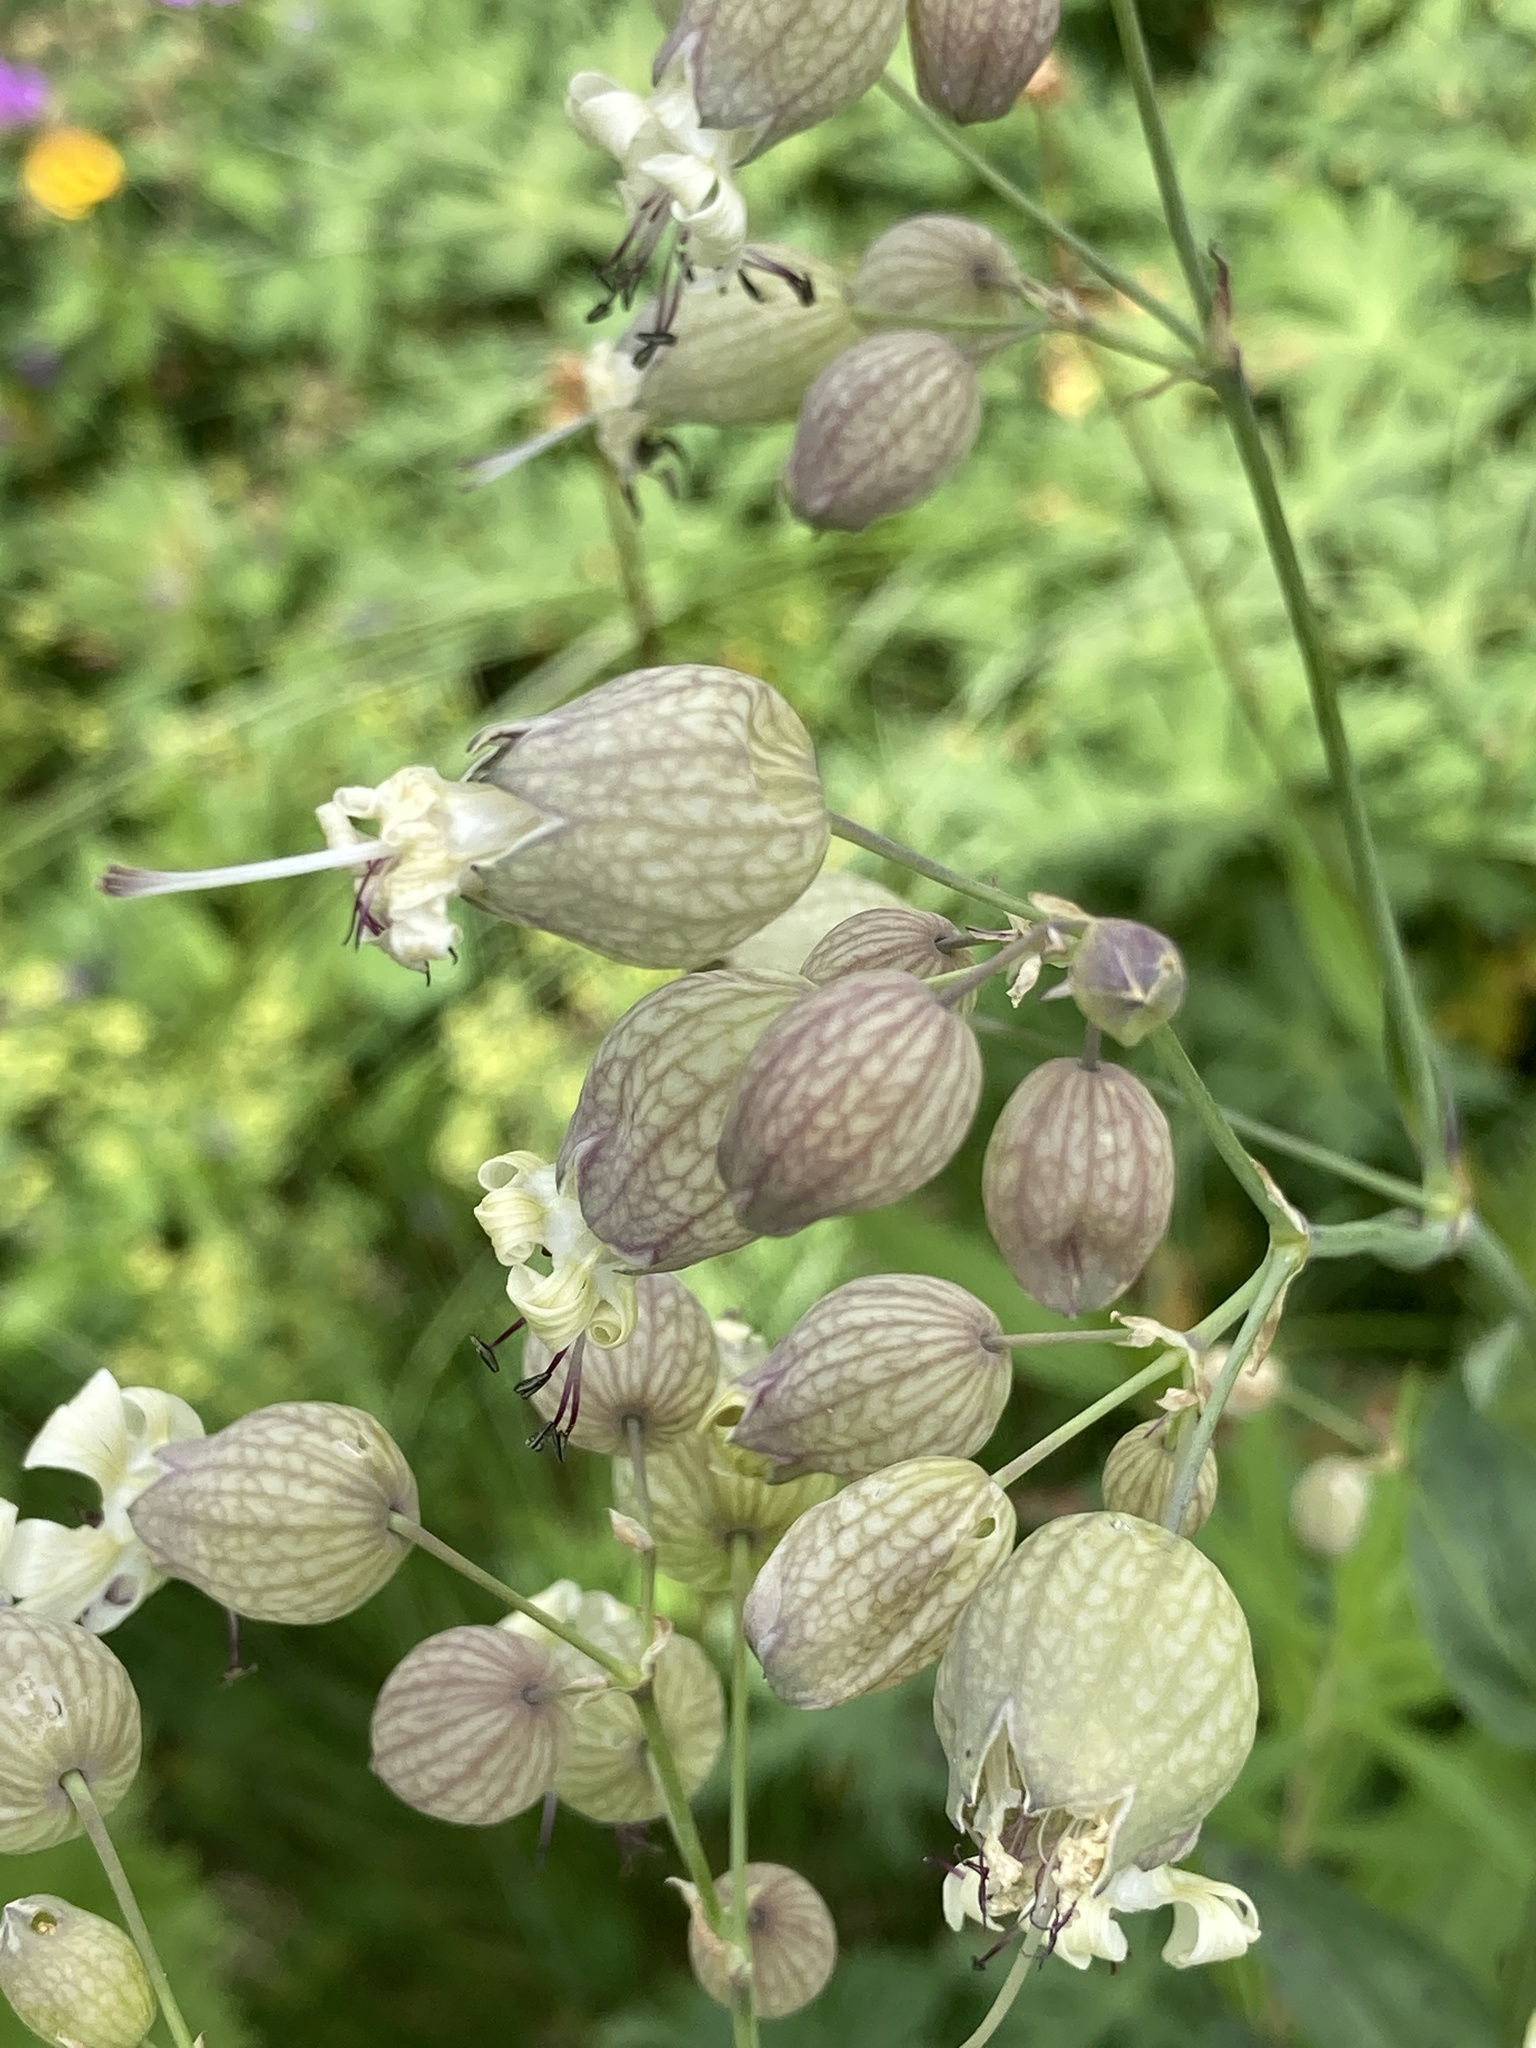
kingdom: Plantae
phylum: Tracheophyta
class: Magnoliopsida
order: Caryophyllales
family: Caryophyllaceae
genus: Silene
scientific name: Silene vulgaris
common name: Bladder campion
